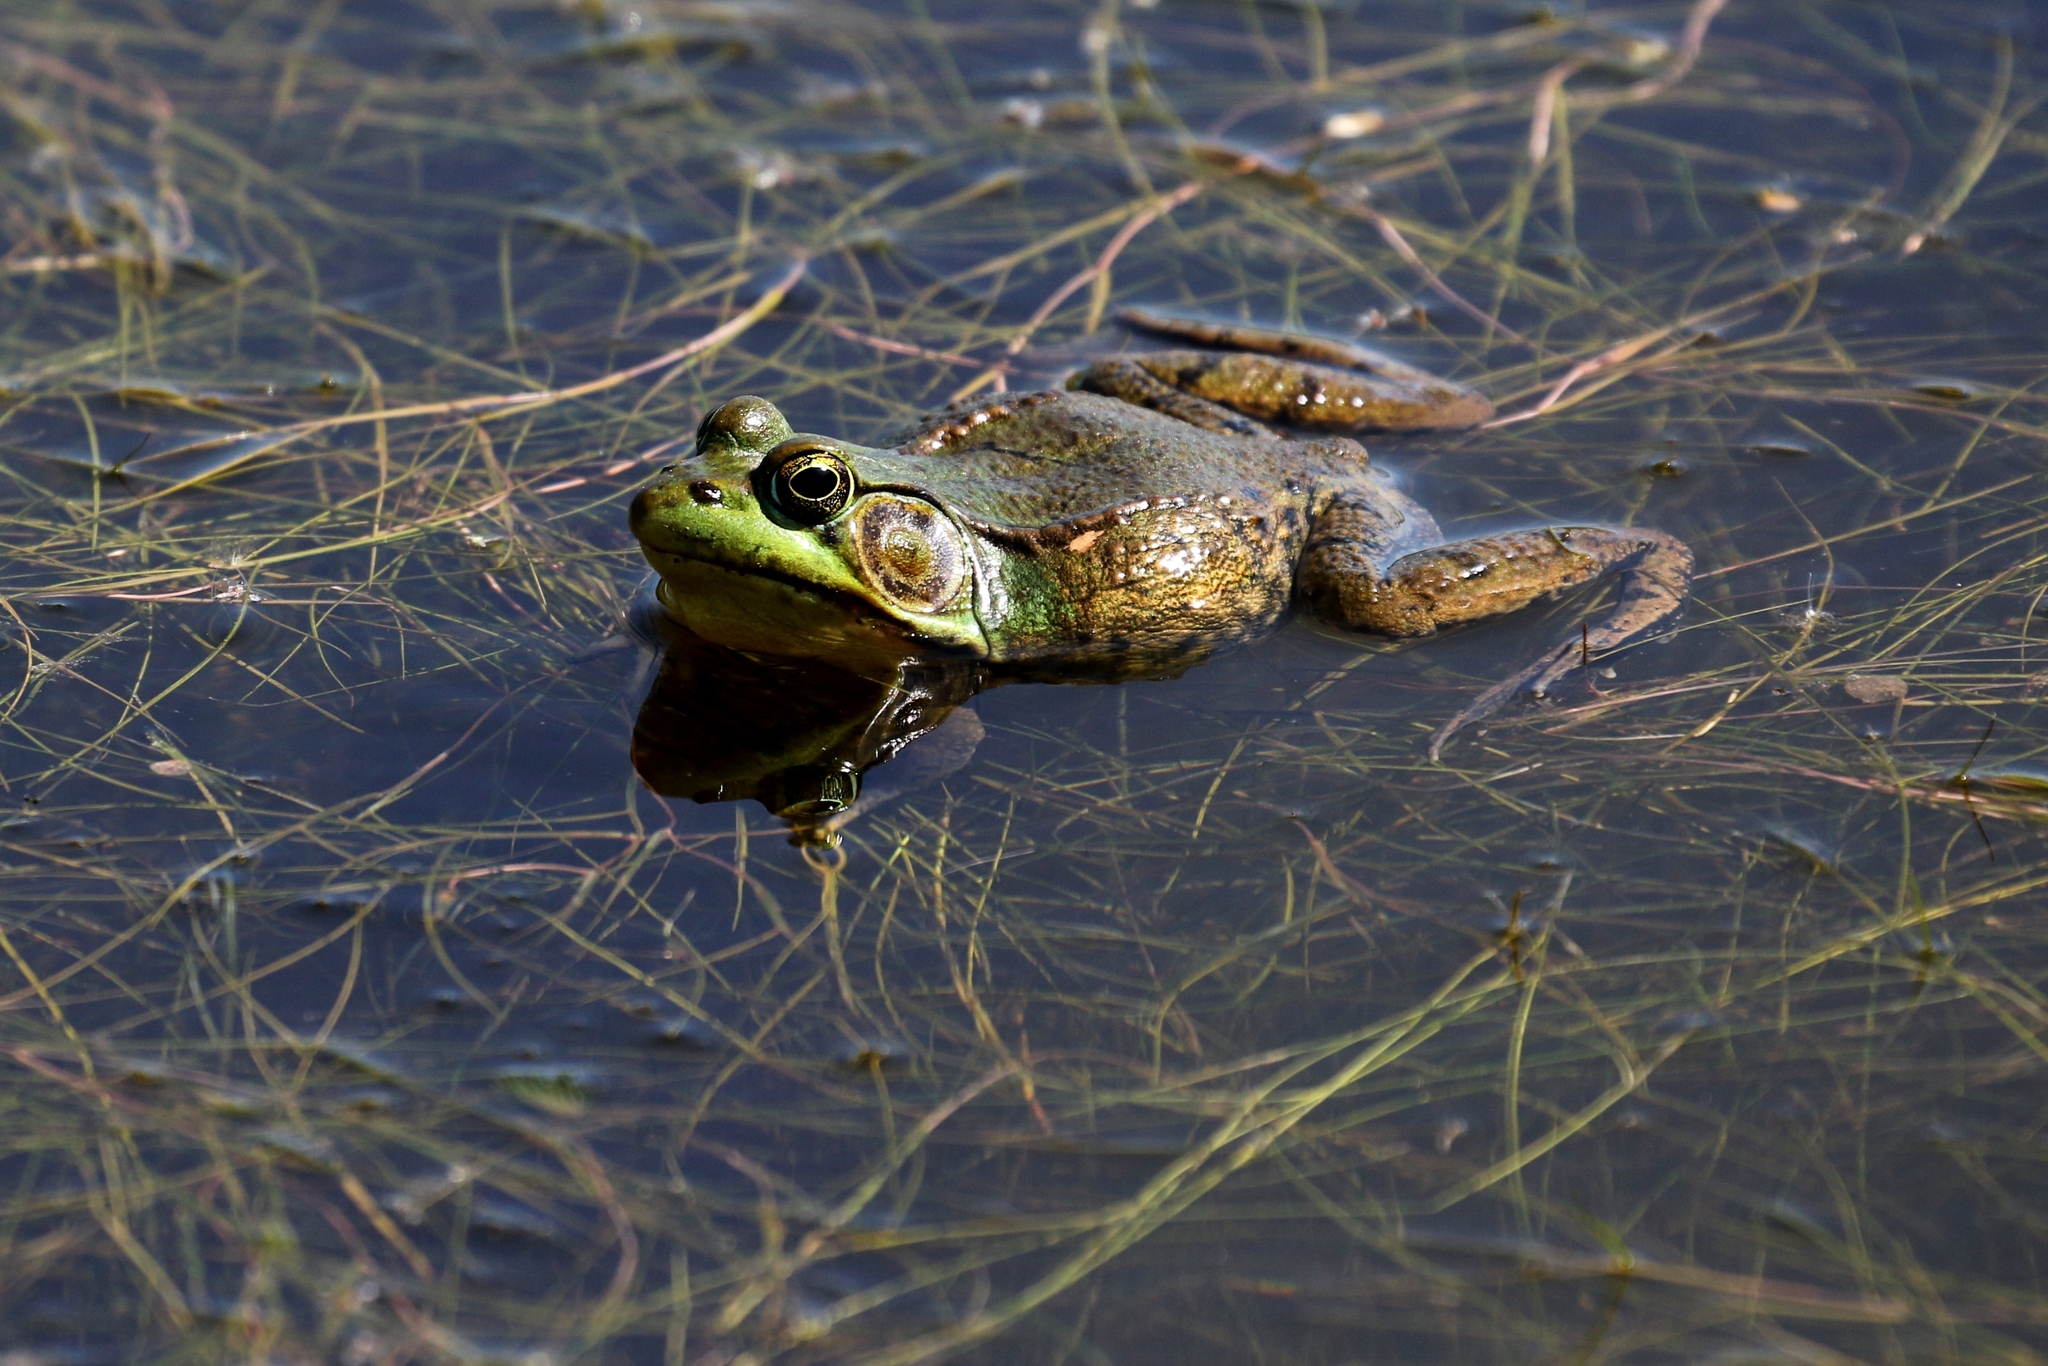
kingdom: Animalia
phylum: Chordata
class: Amphibia
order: Anura
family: Ranidae
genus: Lithobates
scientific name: Lithobates clamitans
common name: Green frog
